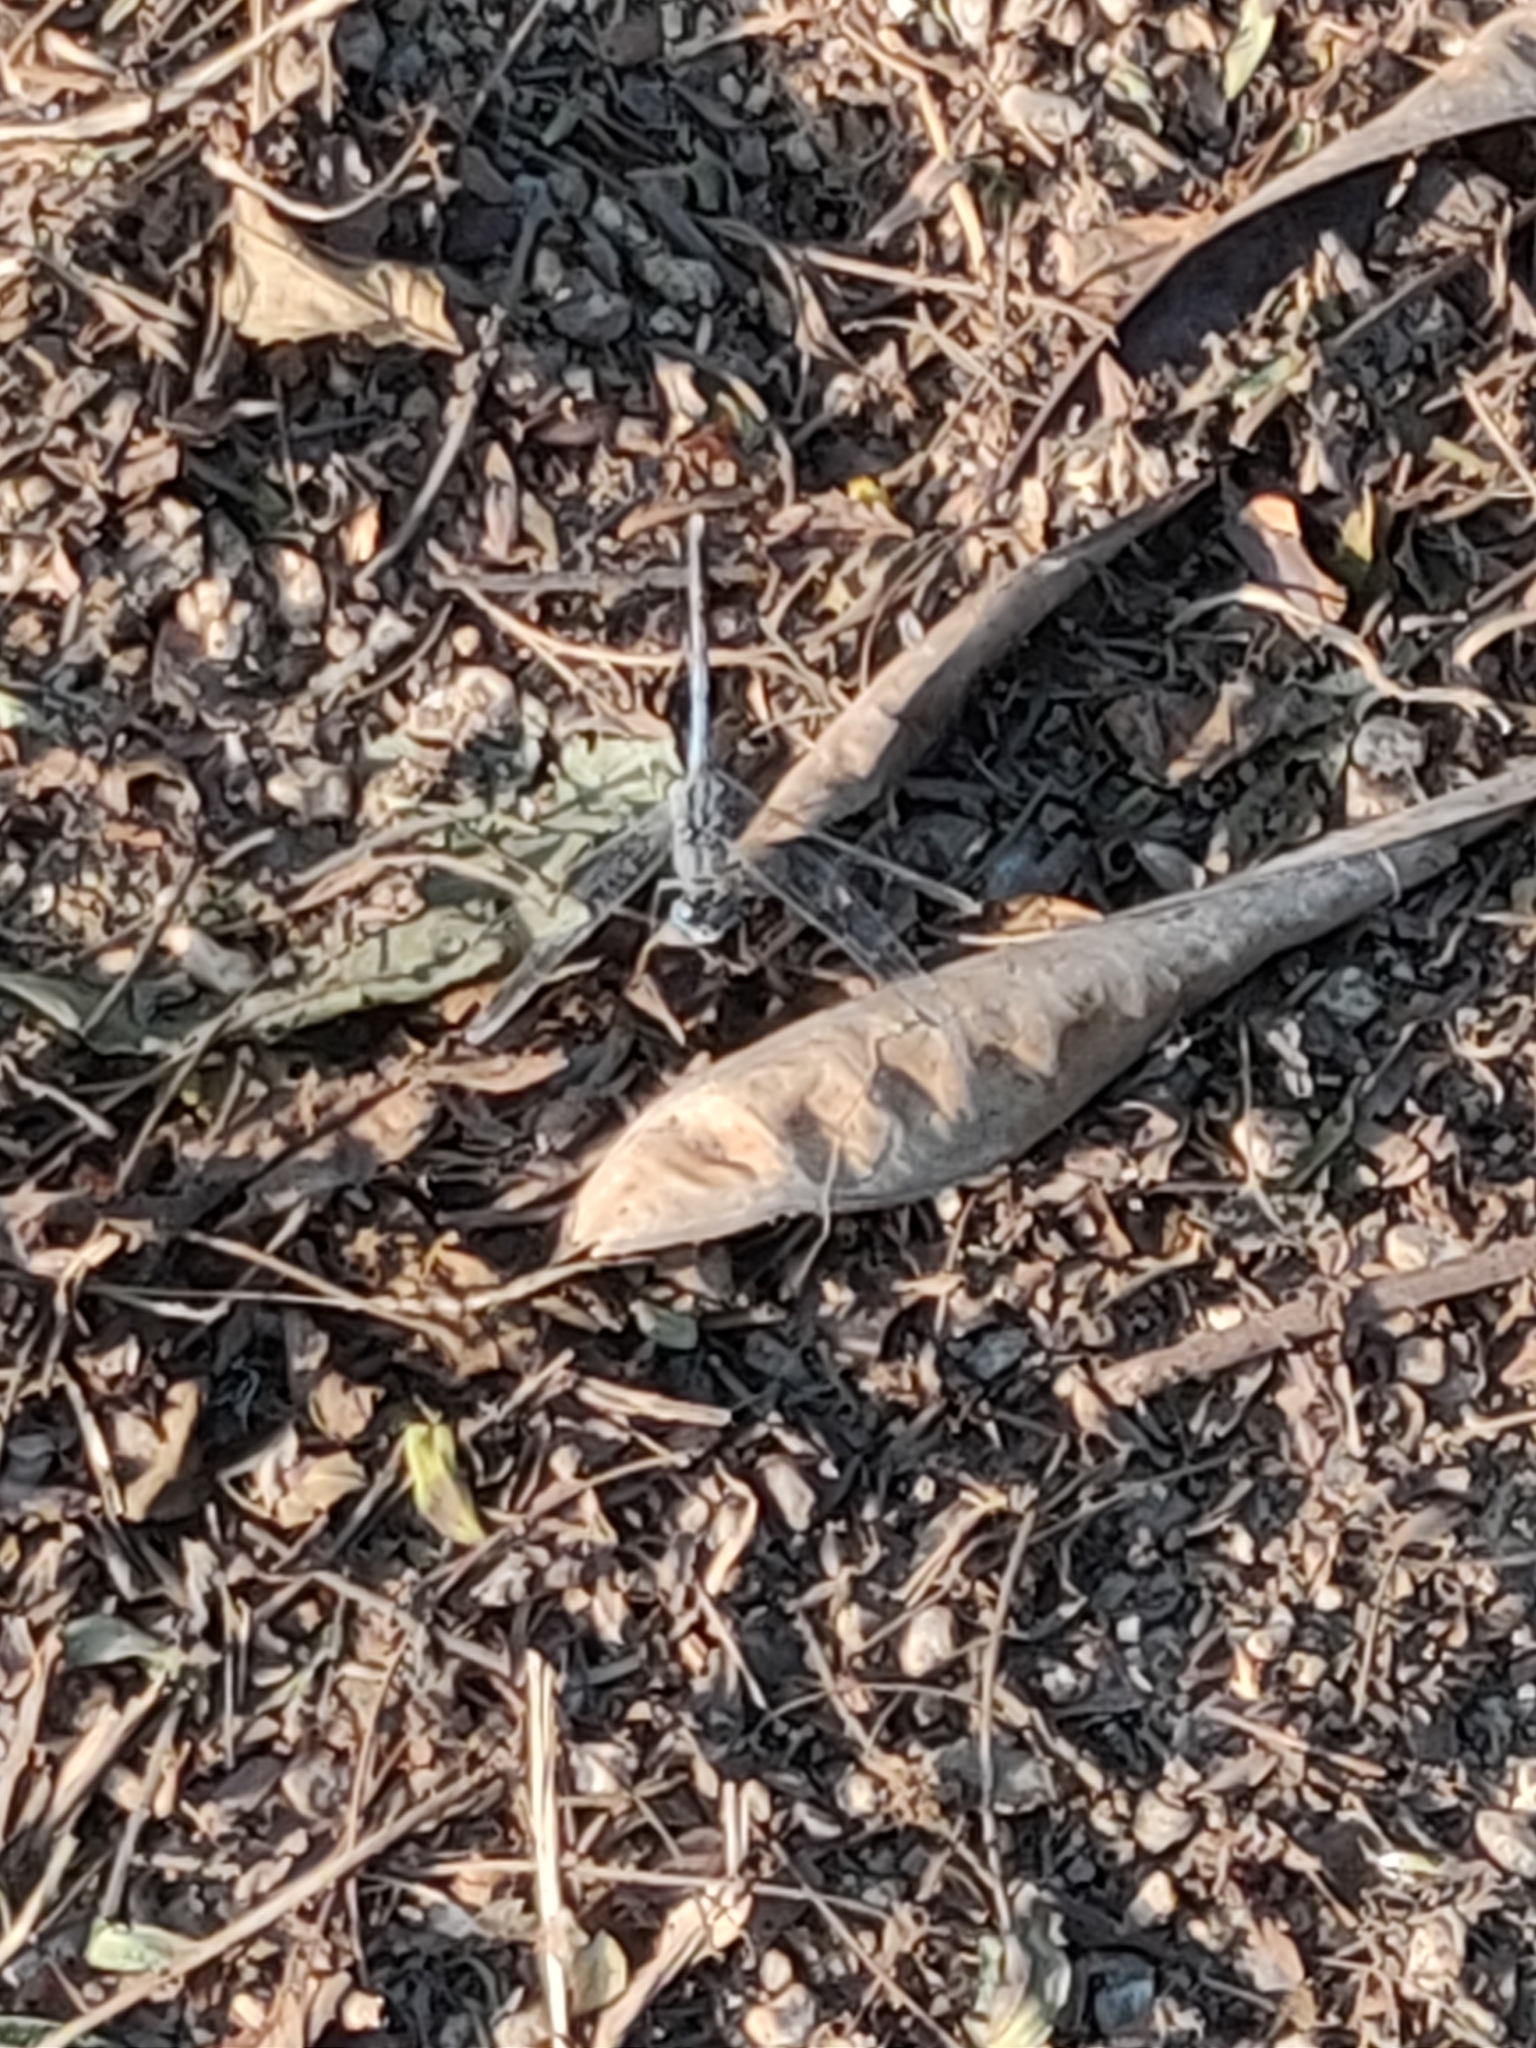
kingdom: Animalia
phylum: Arthropoda
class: Insecta
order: Odonata
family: Libellulidae
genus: Diplacodes
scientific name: Diplacodes trivialis
